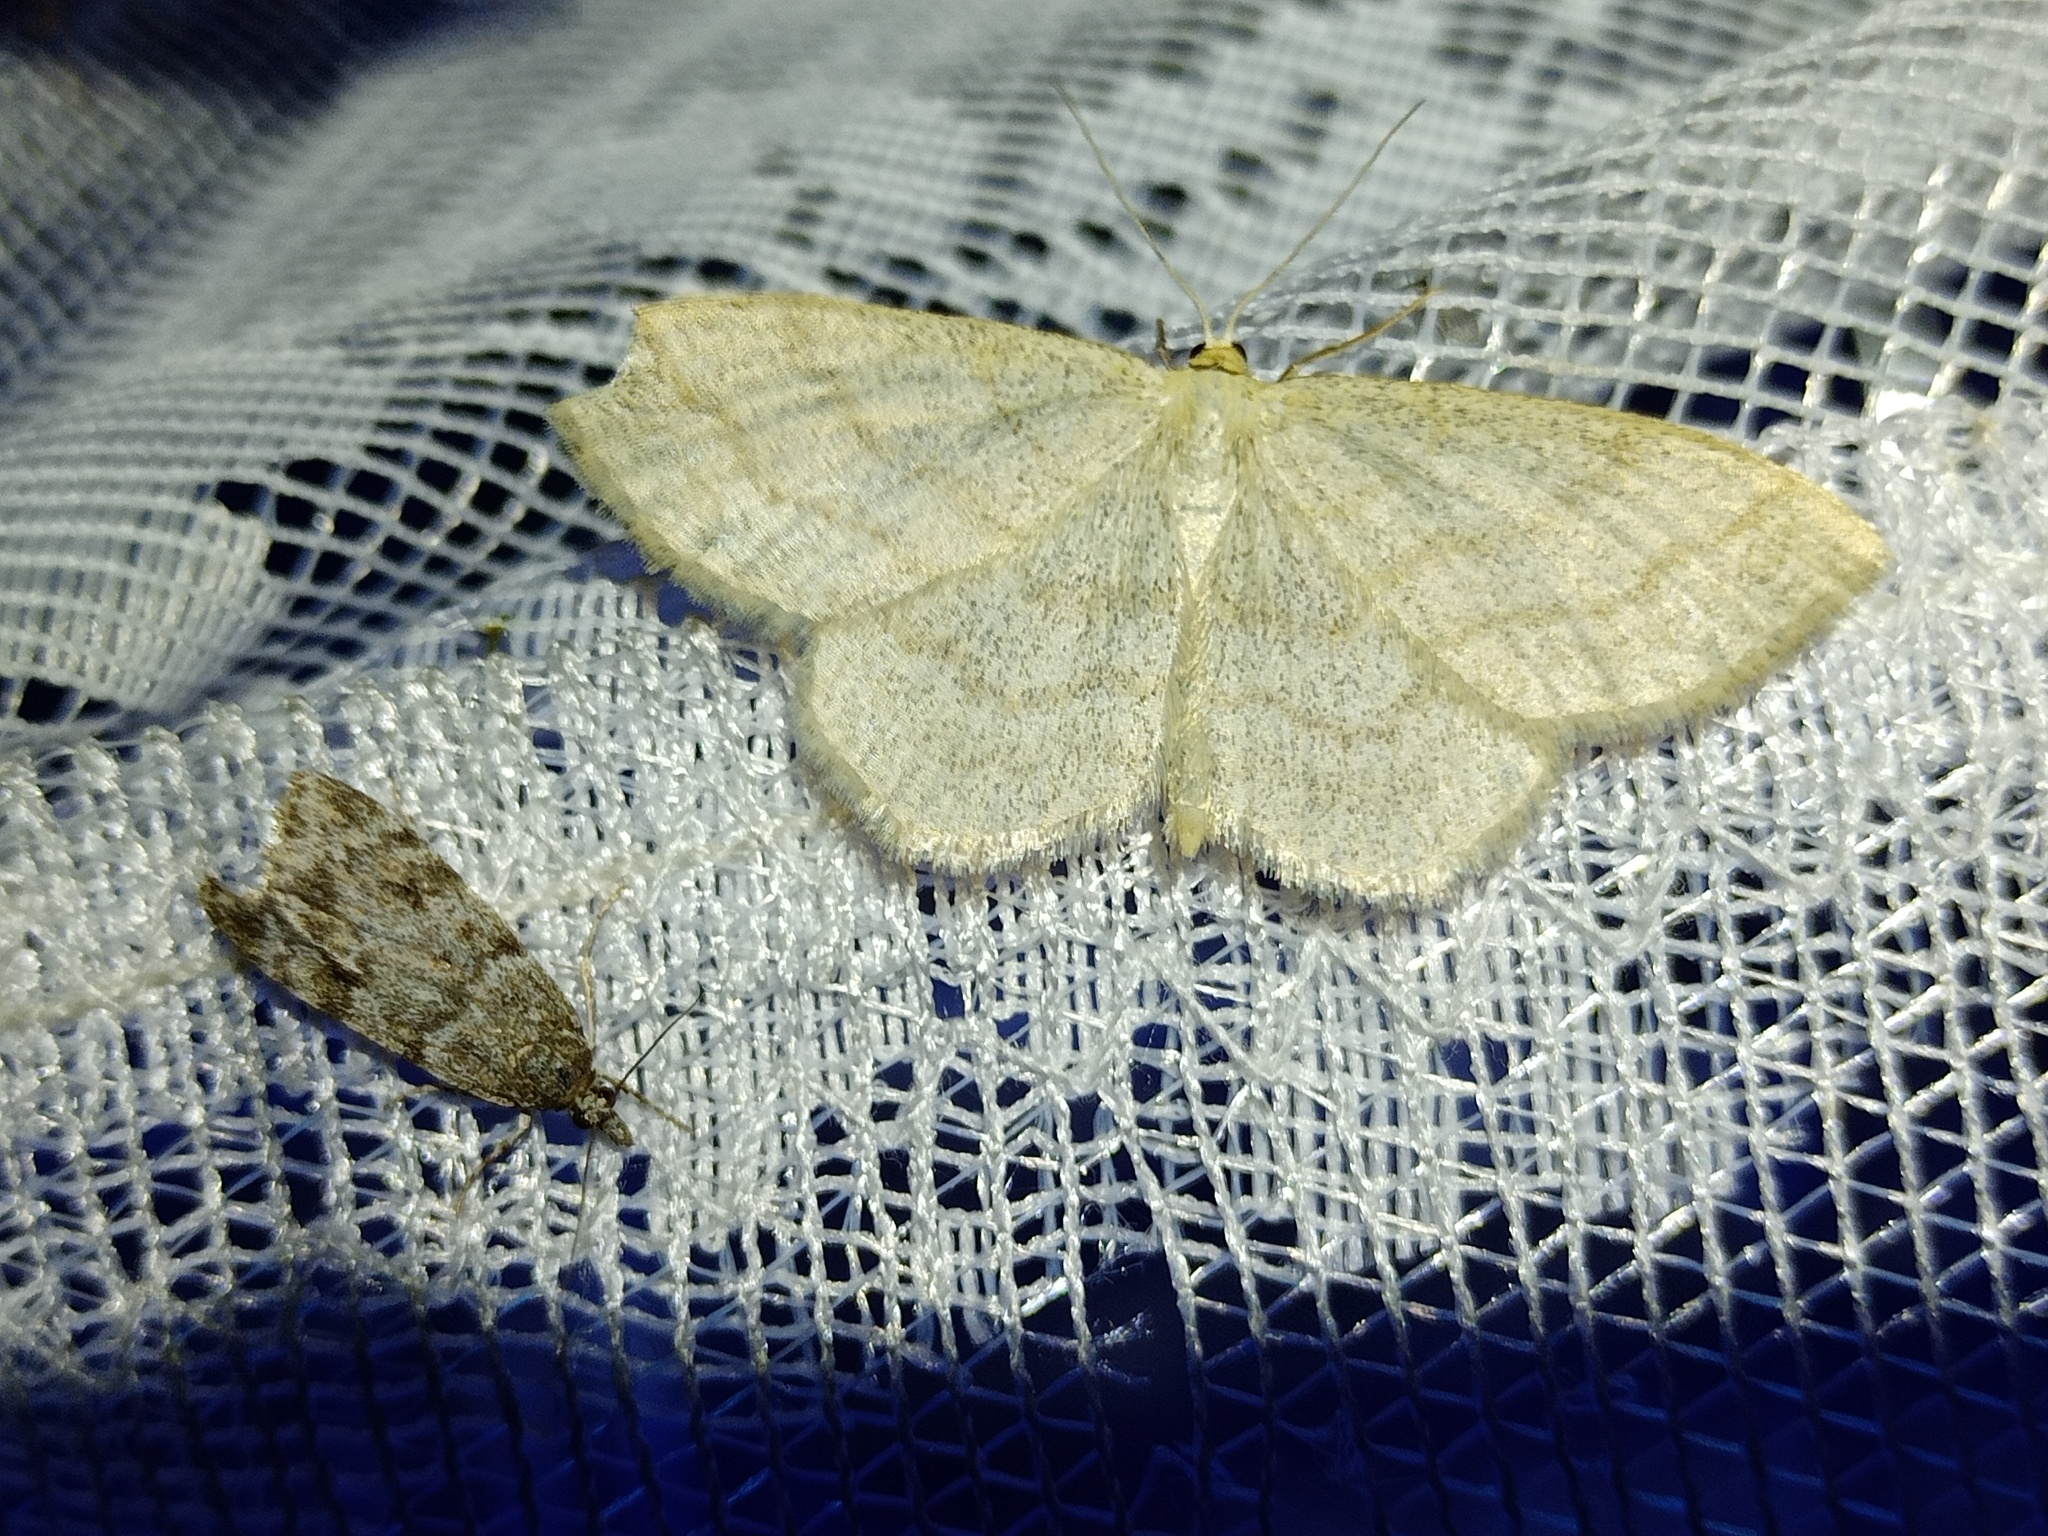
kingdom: Animalia
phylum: Arthropoda
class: Insecta
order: Lepidoptera
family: Geometridae
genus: Scopula
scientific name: Scopula ternata
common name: Smoky wave
